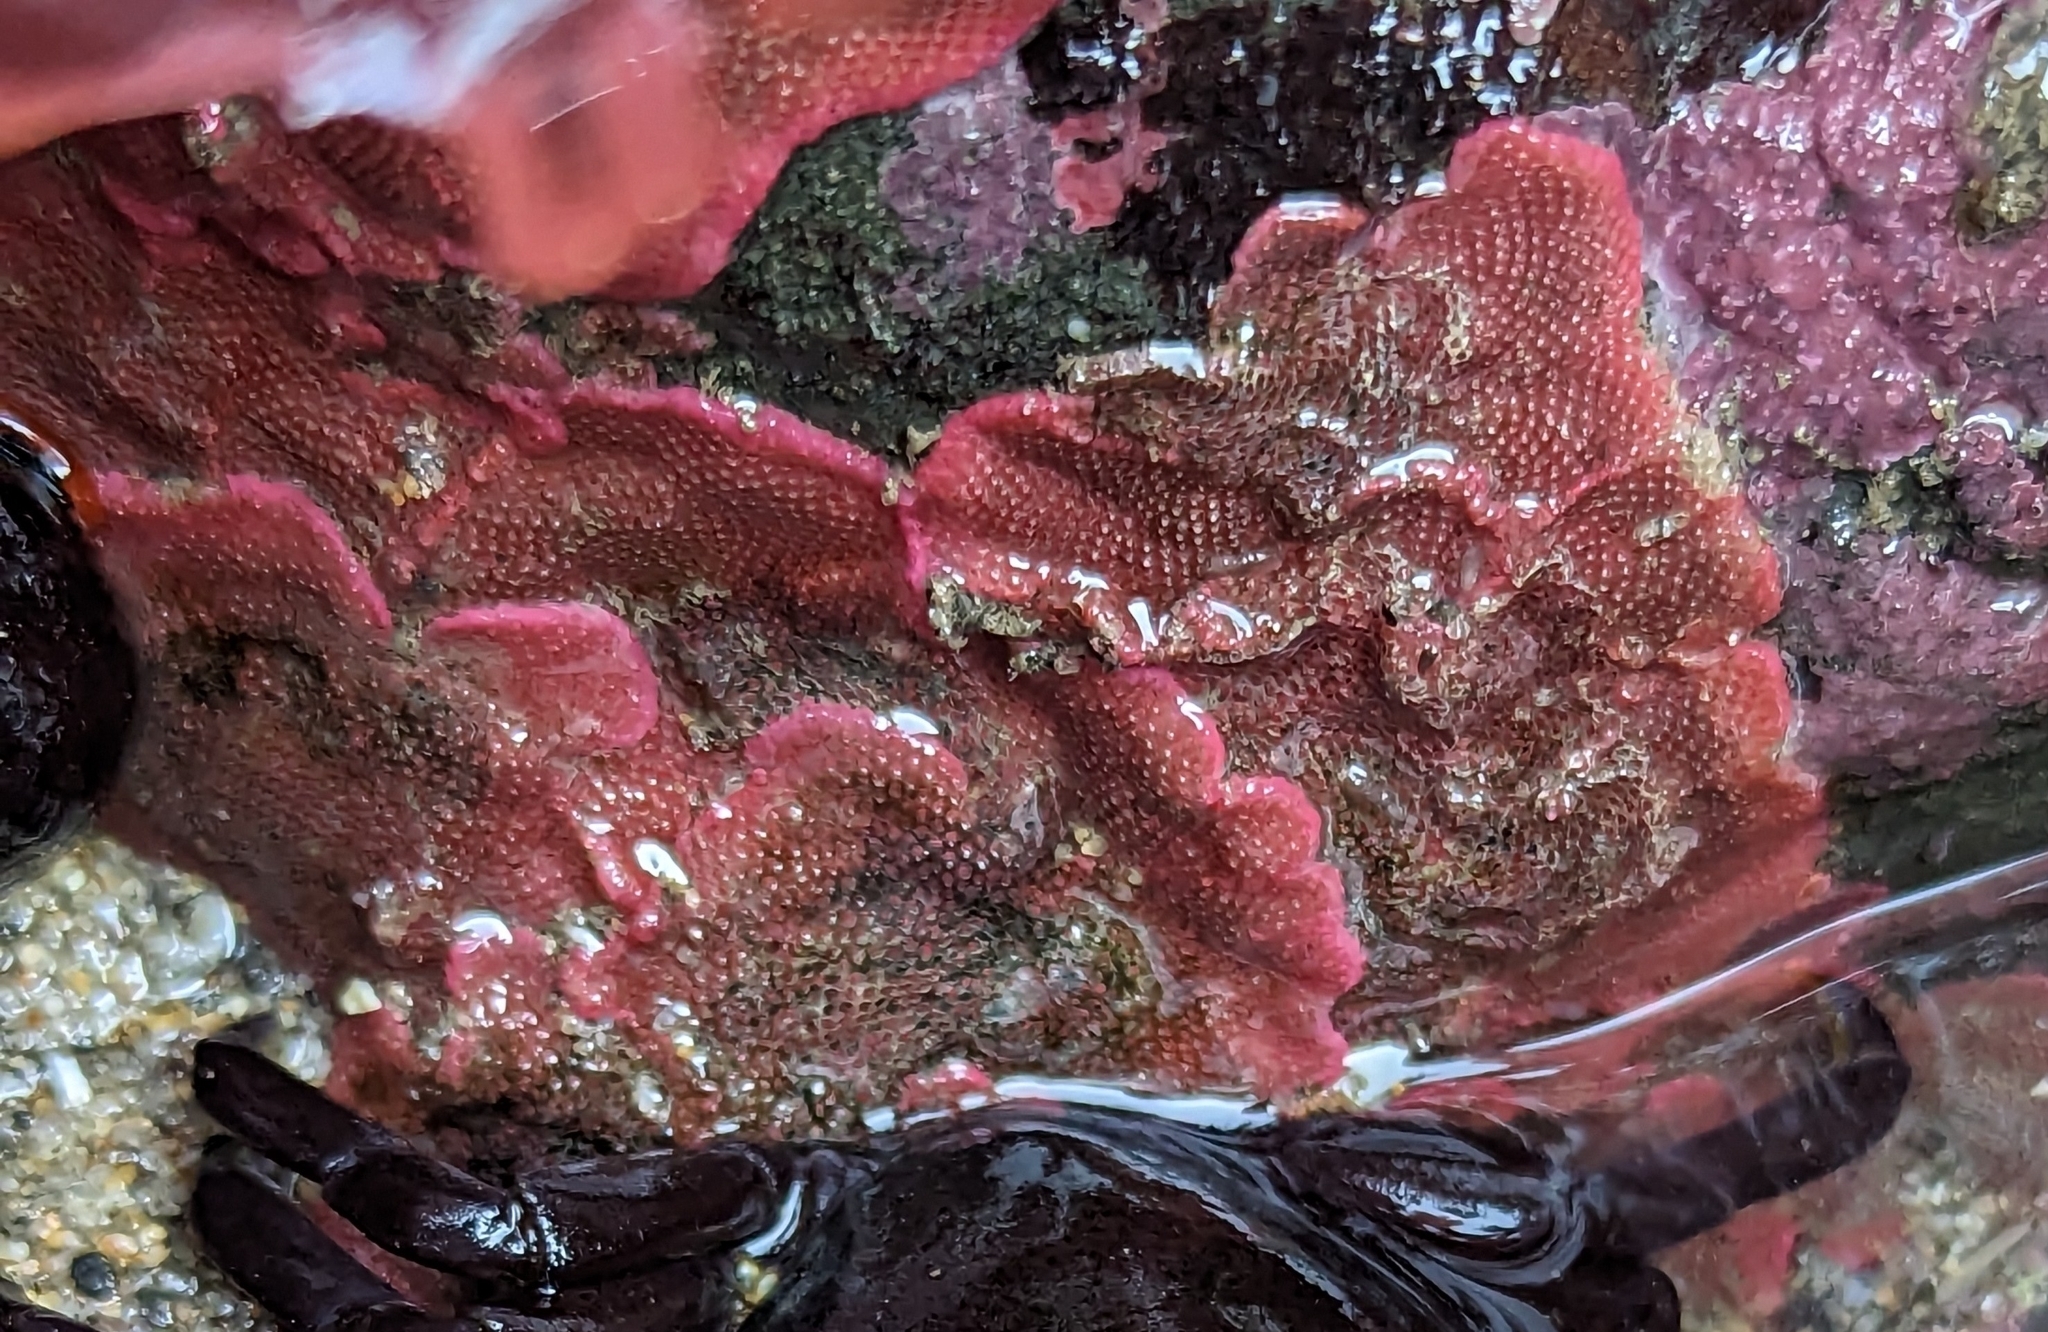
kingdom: Animalia
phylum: Bryozoa
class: Gymnolaemata
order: Cheilostomatida
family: Eurystomellidae
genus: Integripelta
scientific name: Integripelta bilabiata
